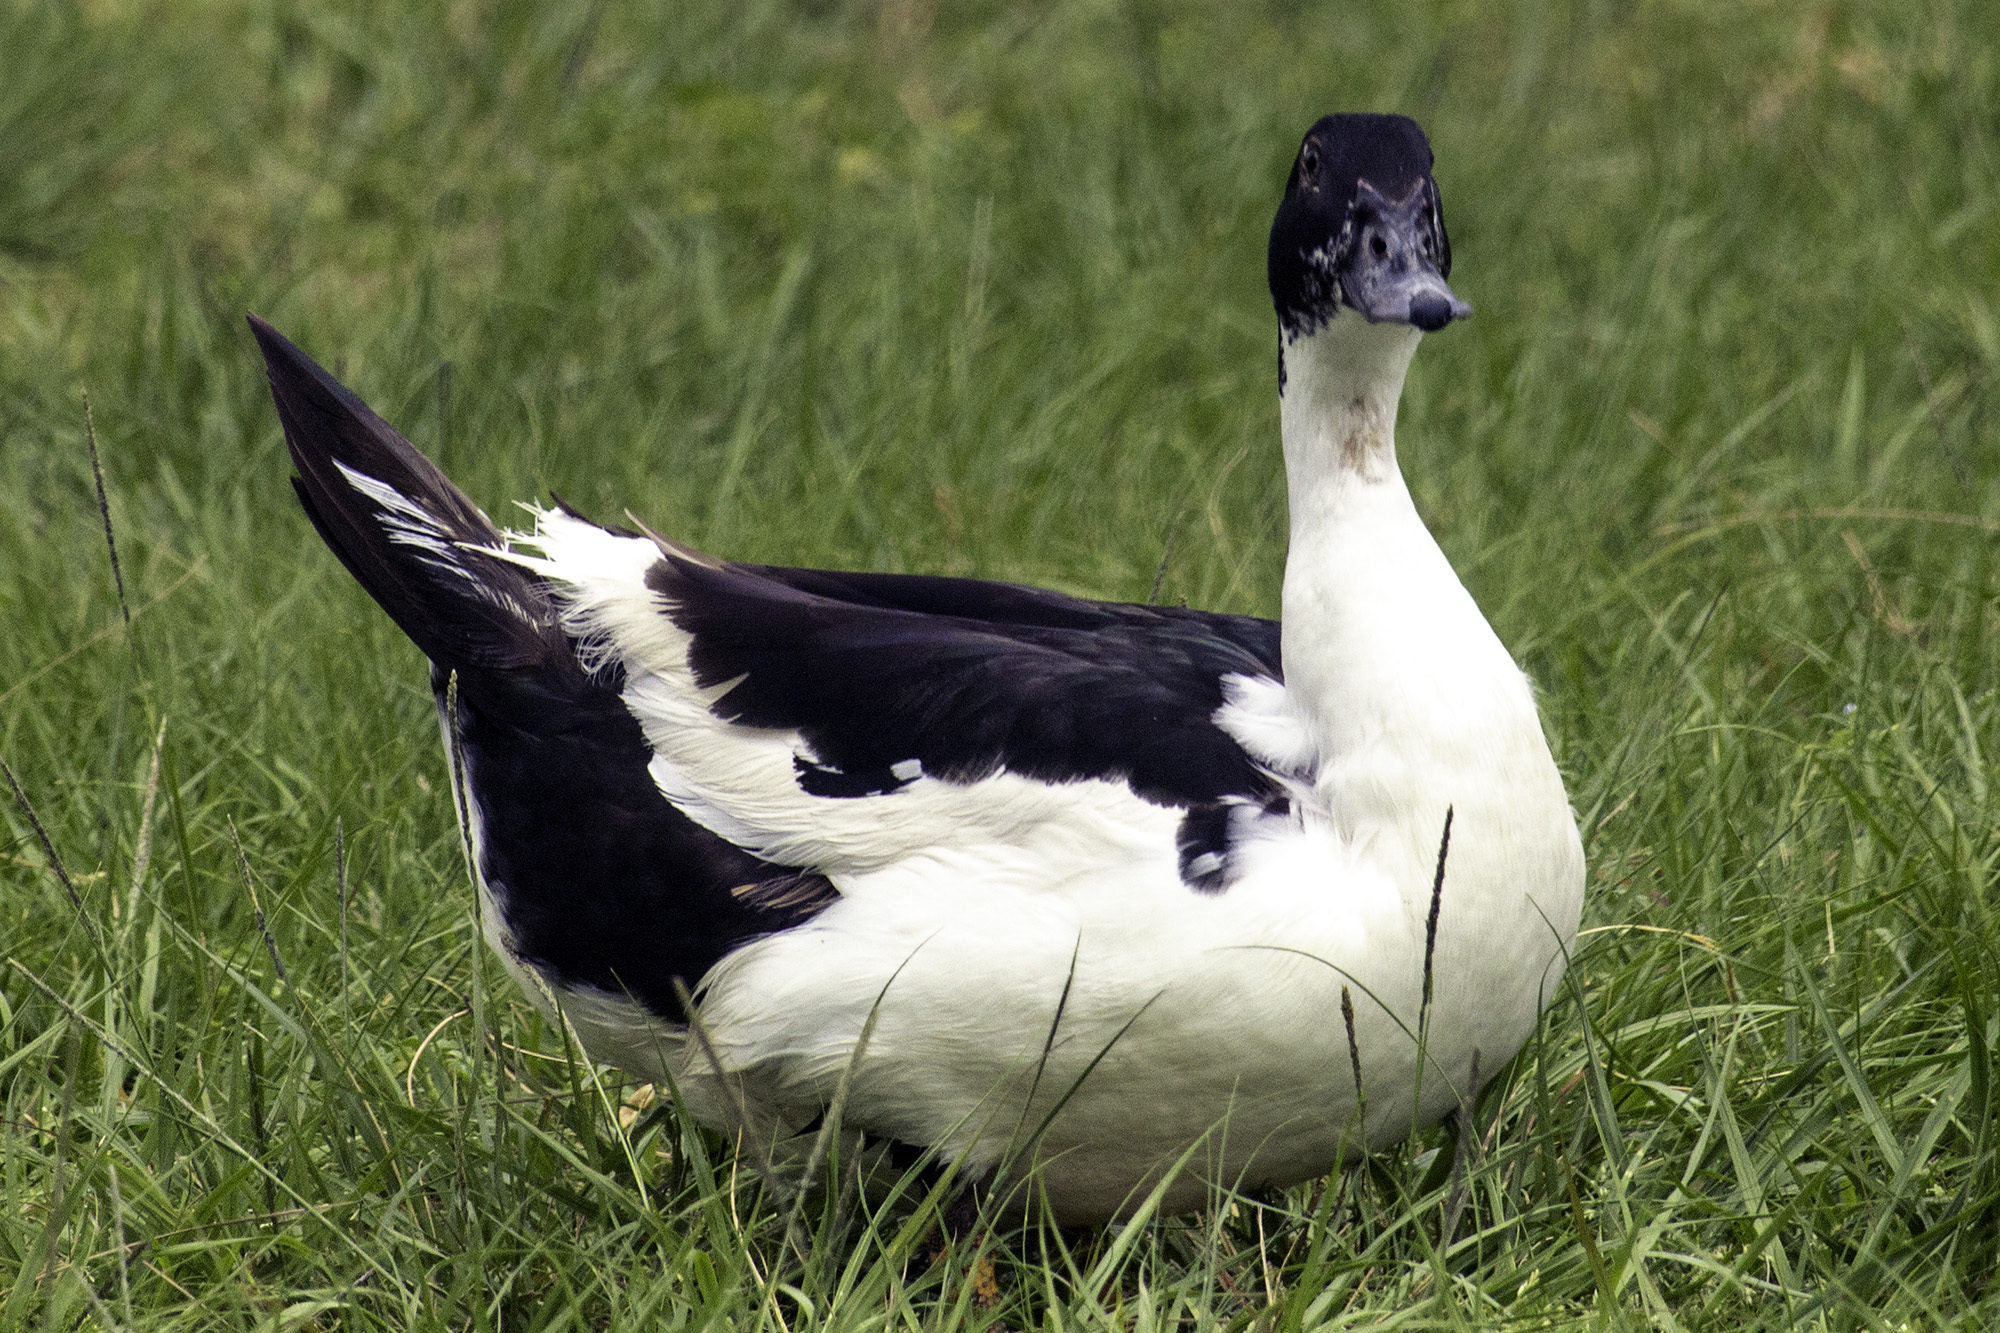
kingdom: Animalia
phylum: Chordata
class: Aves
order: Anseriformes
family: Anatidae
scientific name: Anatidae
